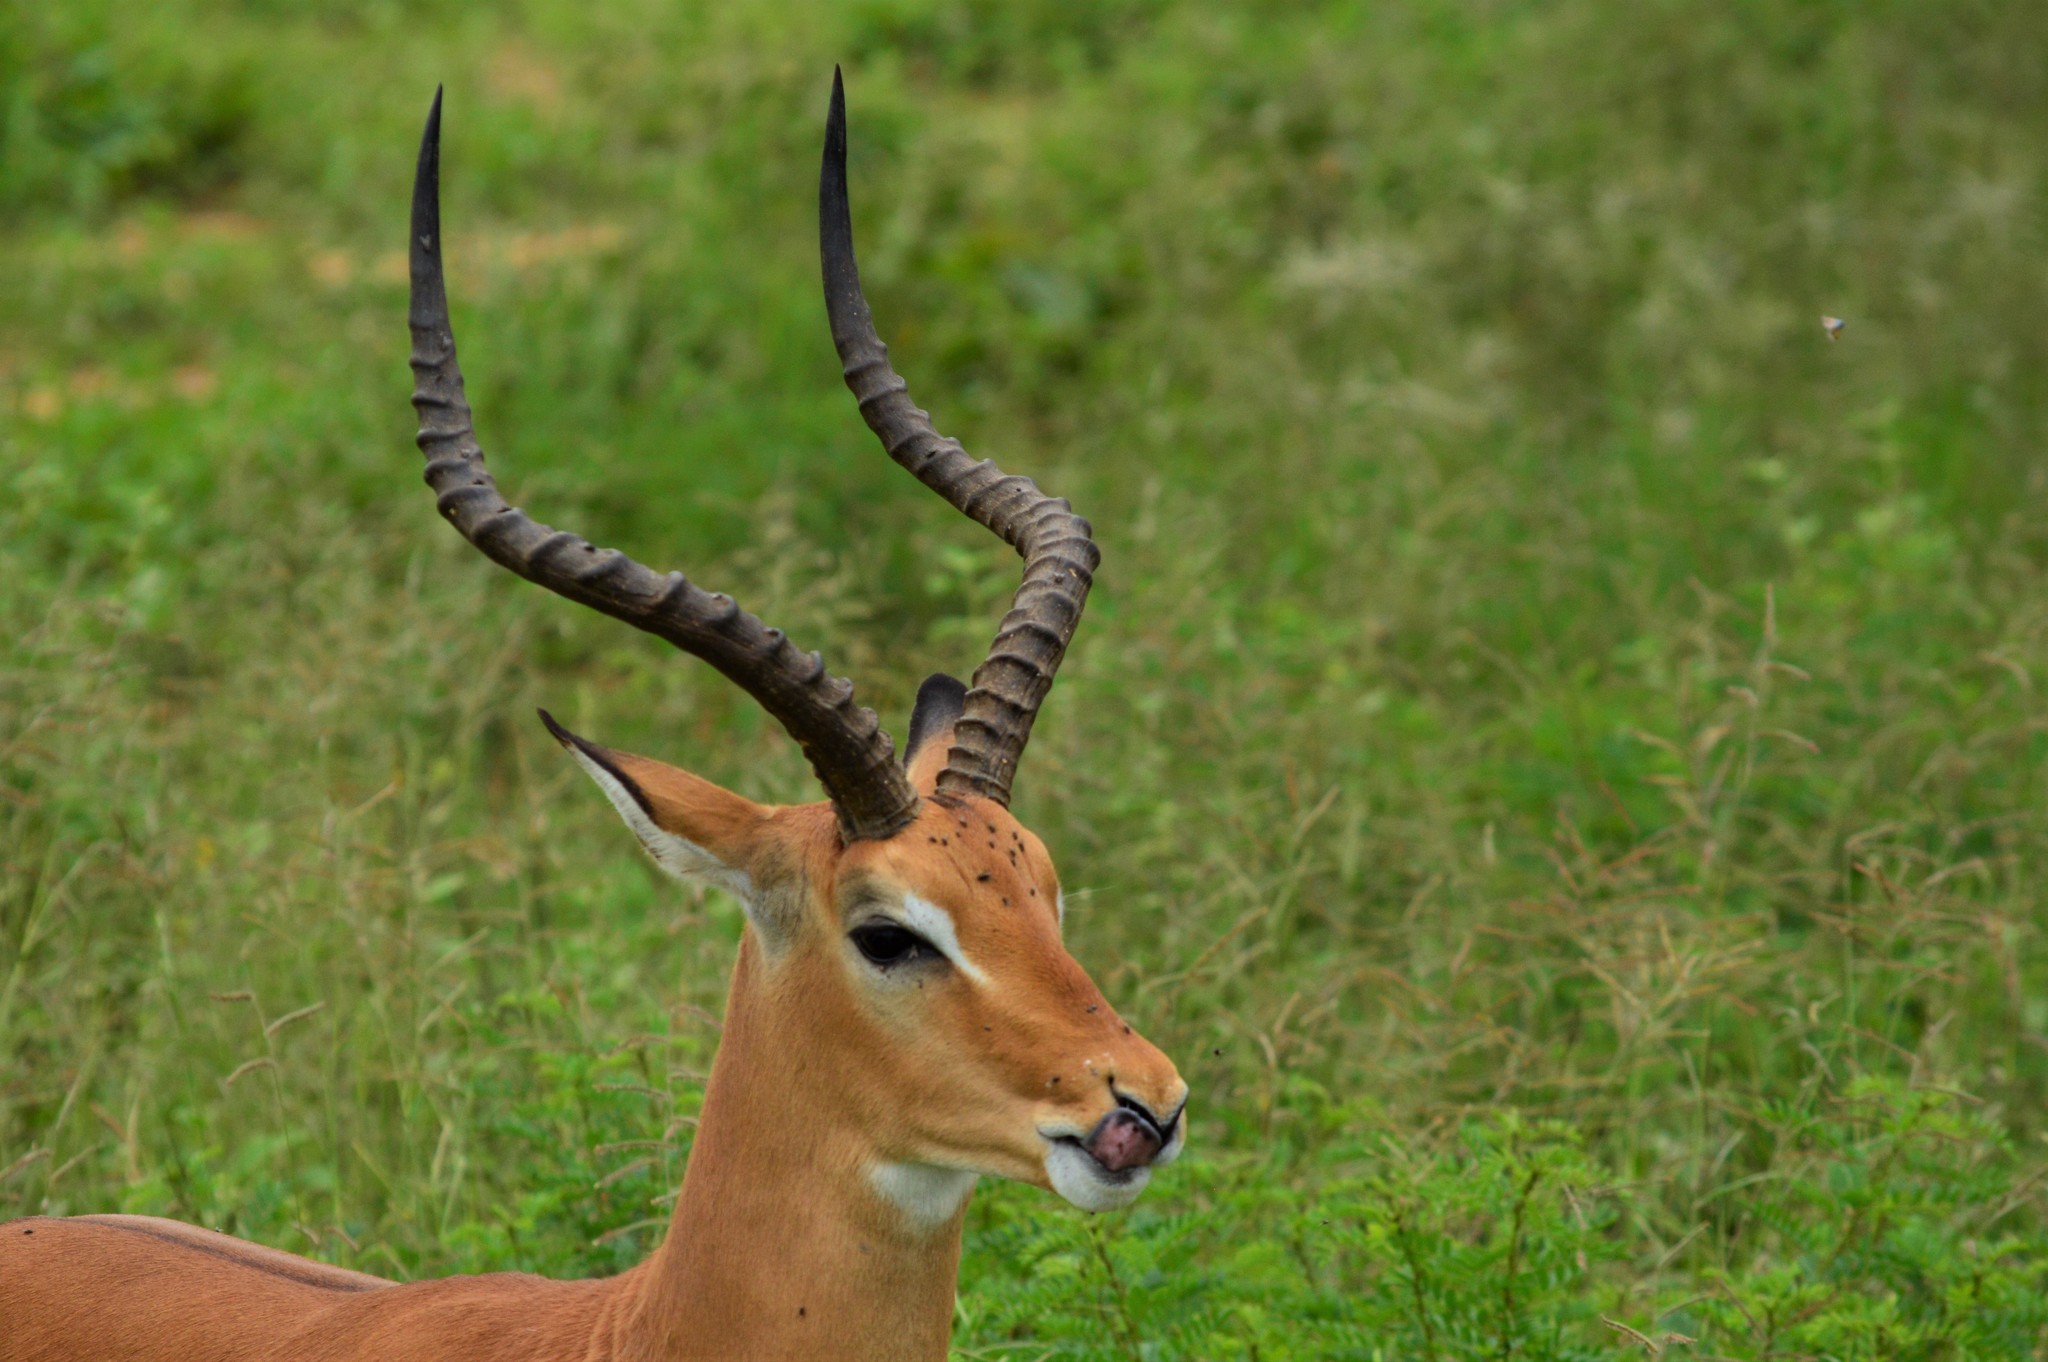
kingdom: Animalia
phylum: Chordata
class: Mammalia
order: Artiodactyla
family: Bovidae
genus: Aepyceros
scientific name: Aepyceros melampus
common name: Impala
